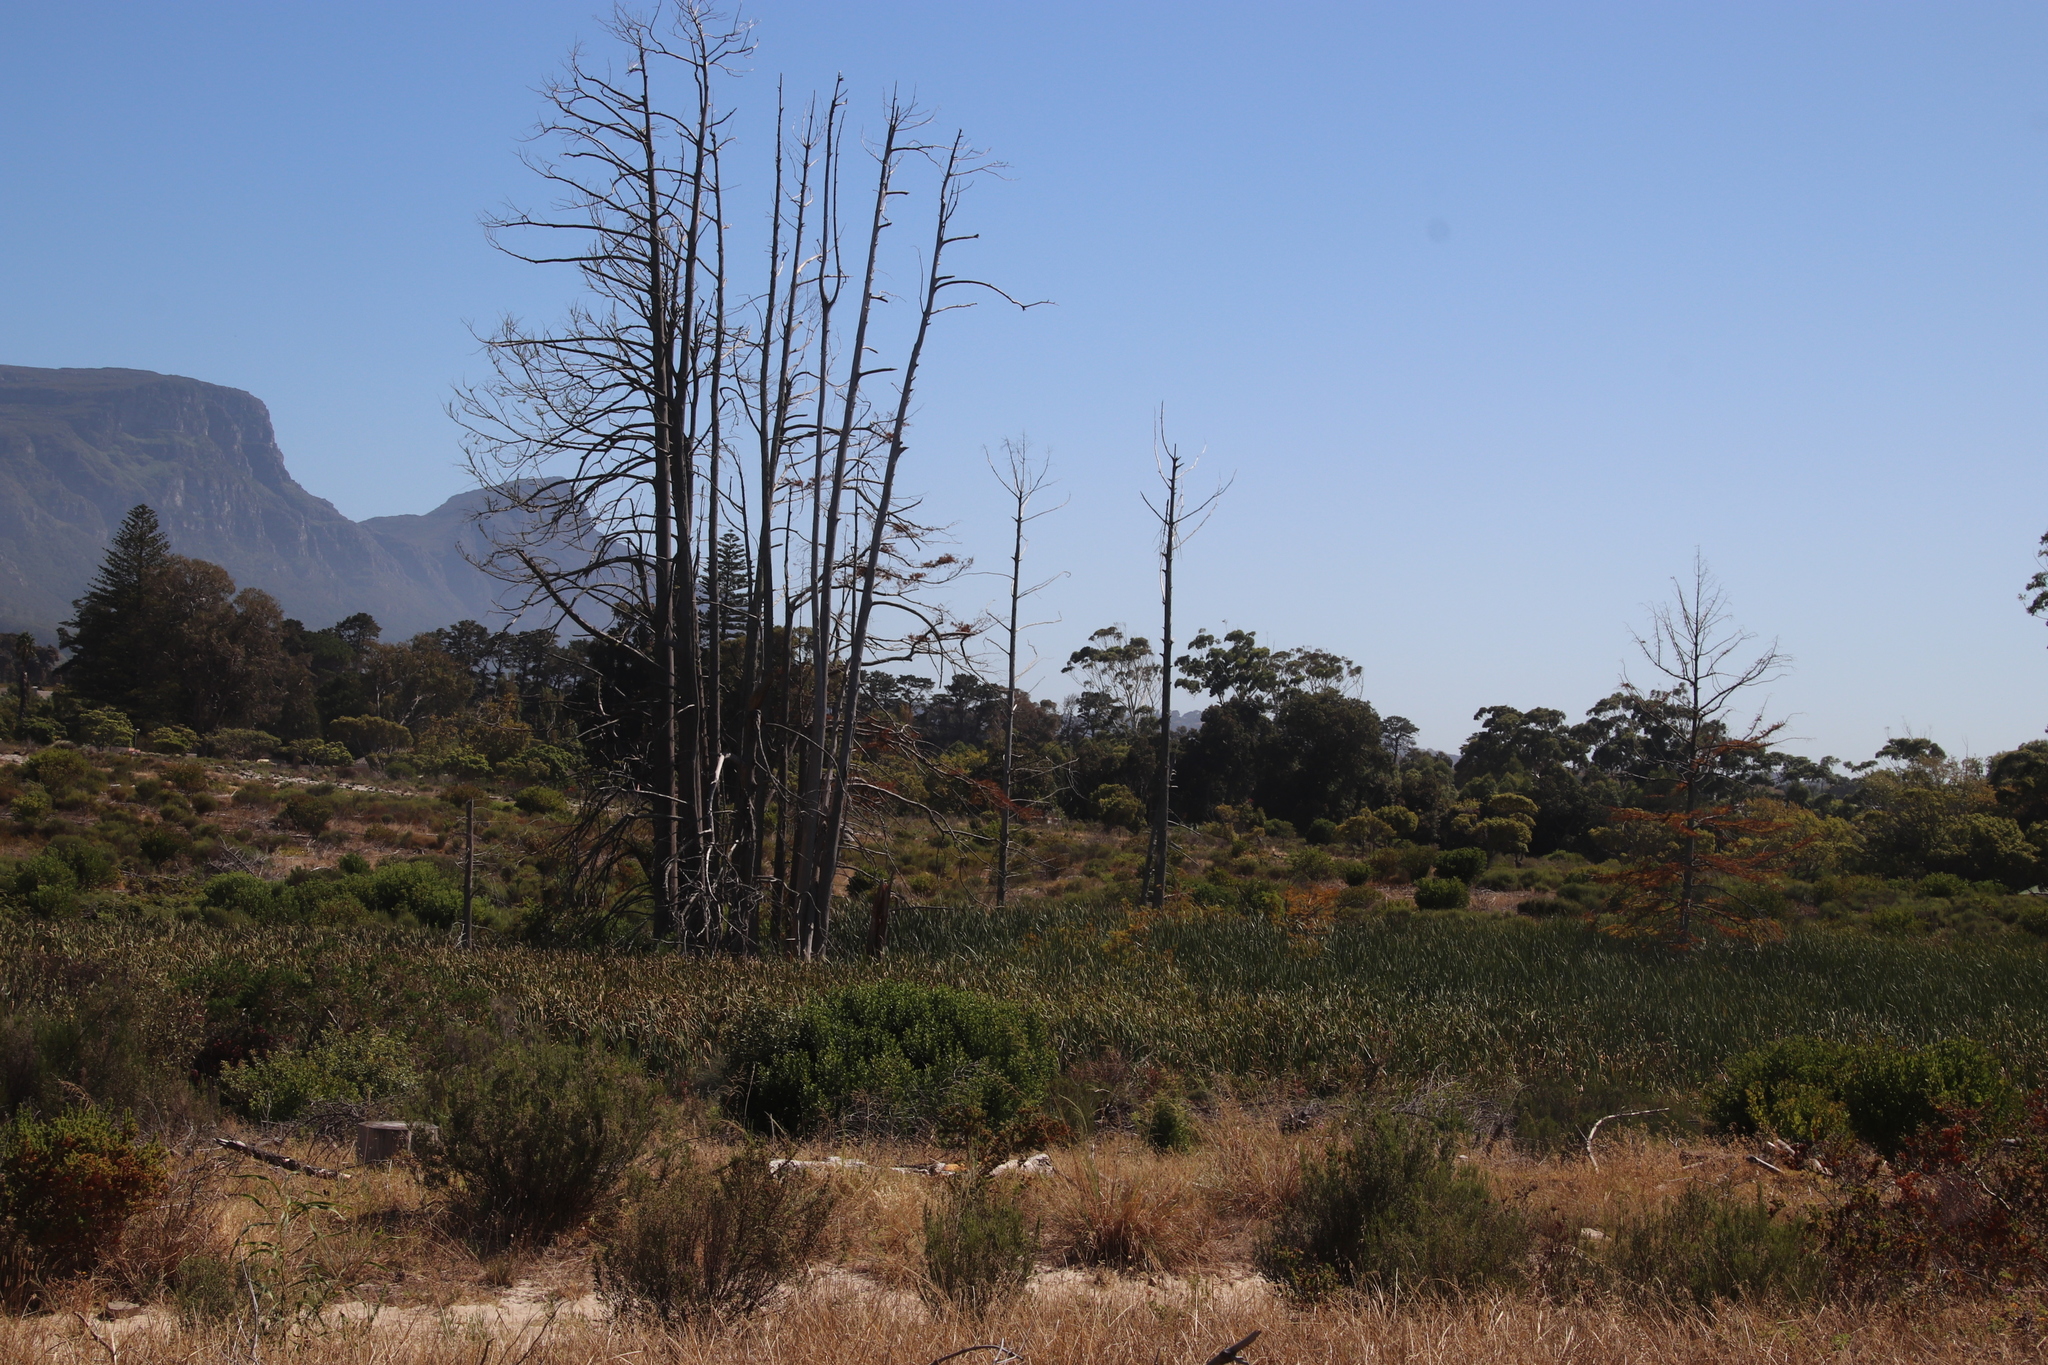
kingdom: Plantae
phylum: Tracheophyta
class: Pinopsida
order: Pinales
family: Cupressaceae
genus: Taxodium
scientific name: Taxodium distichum
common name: Bald cypress
